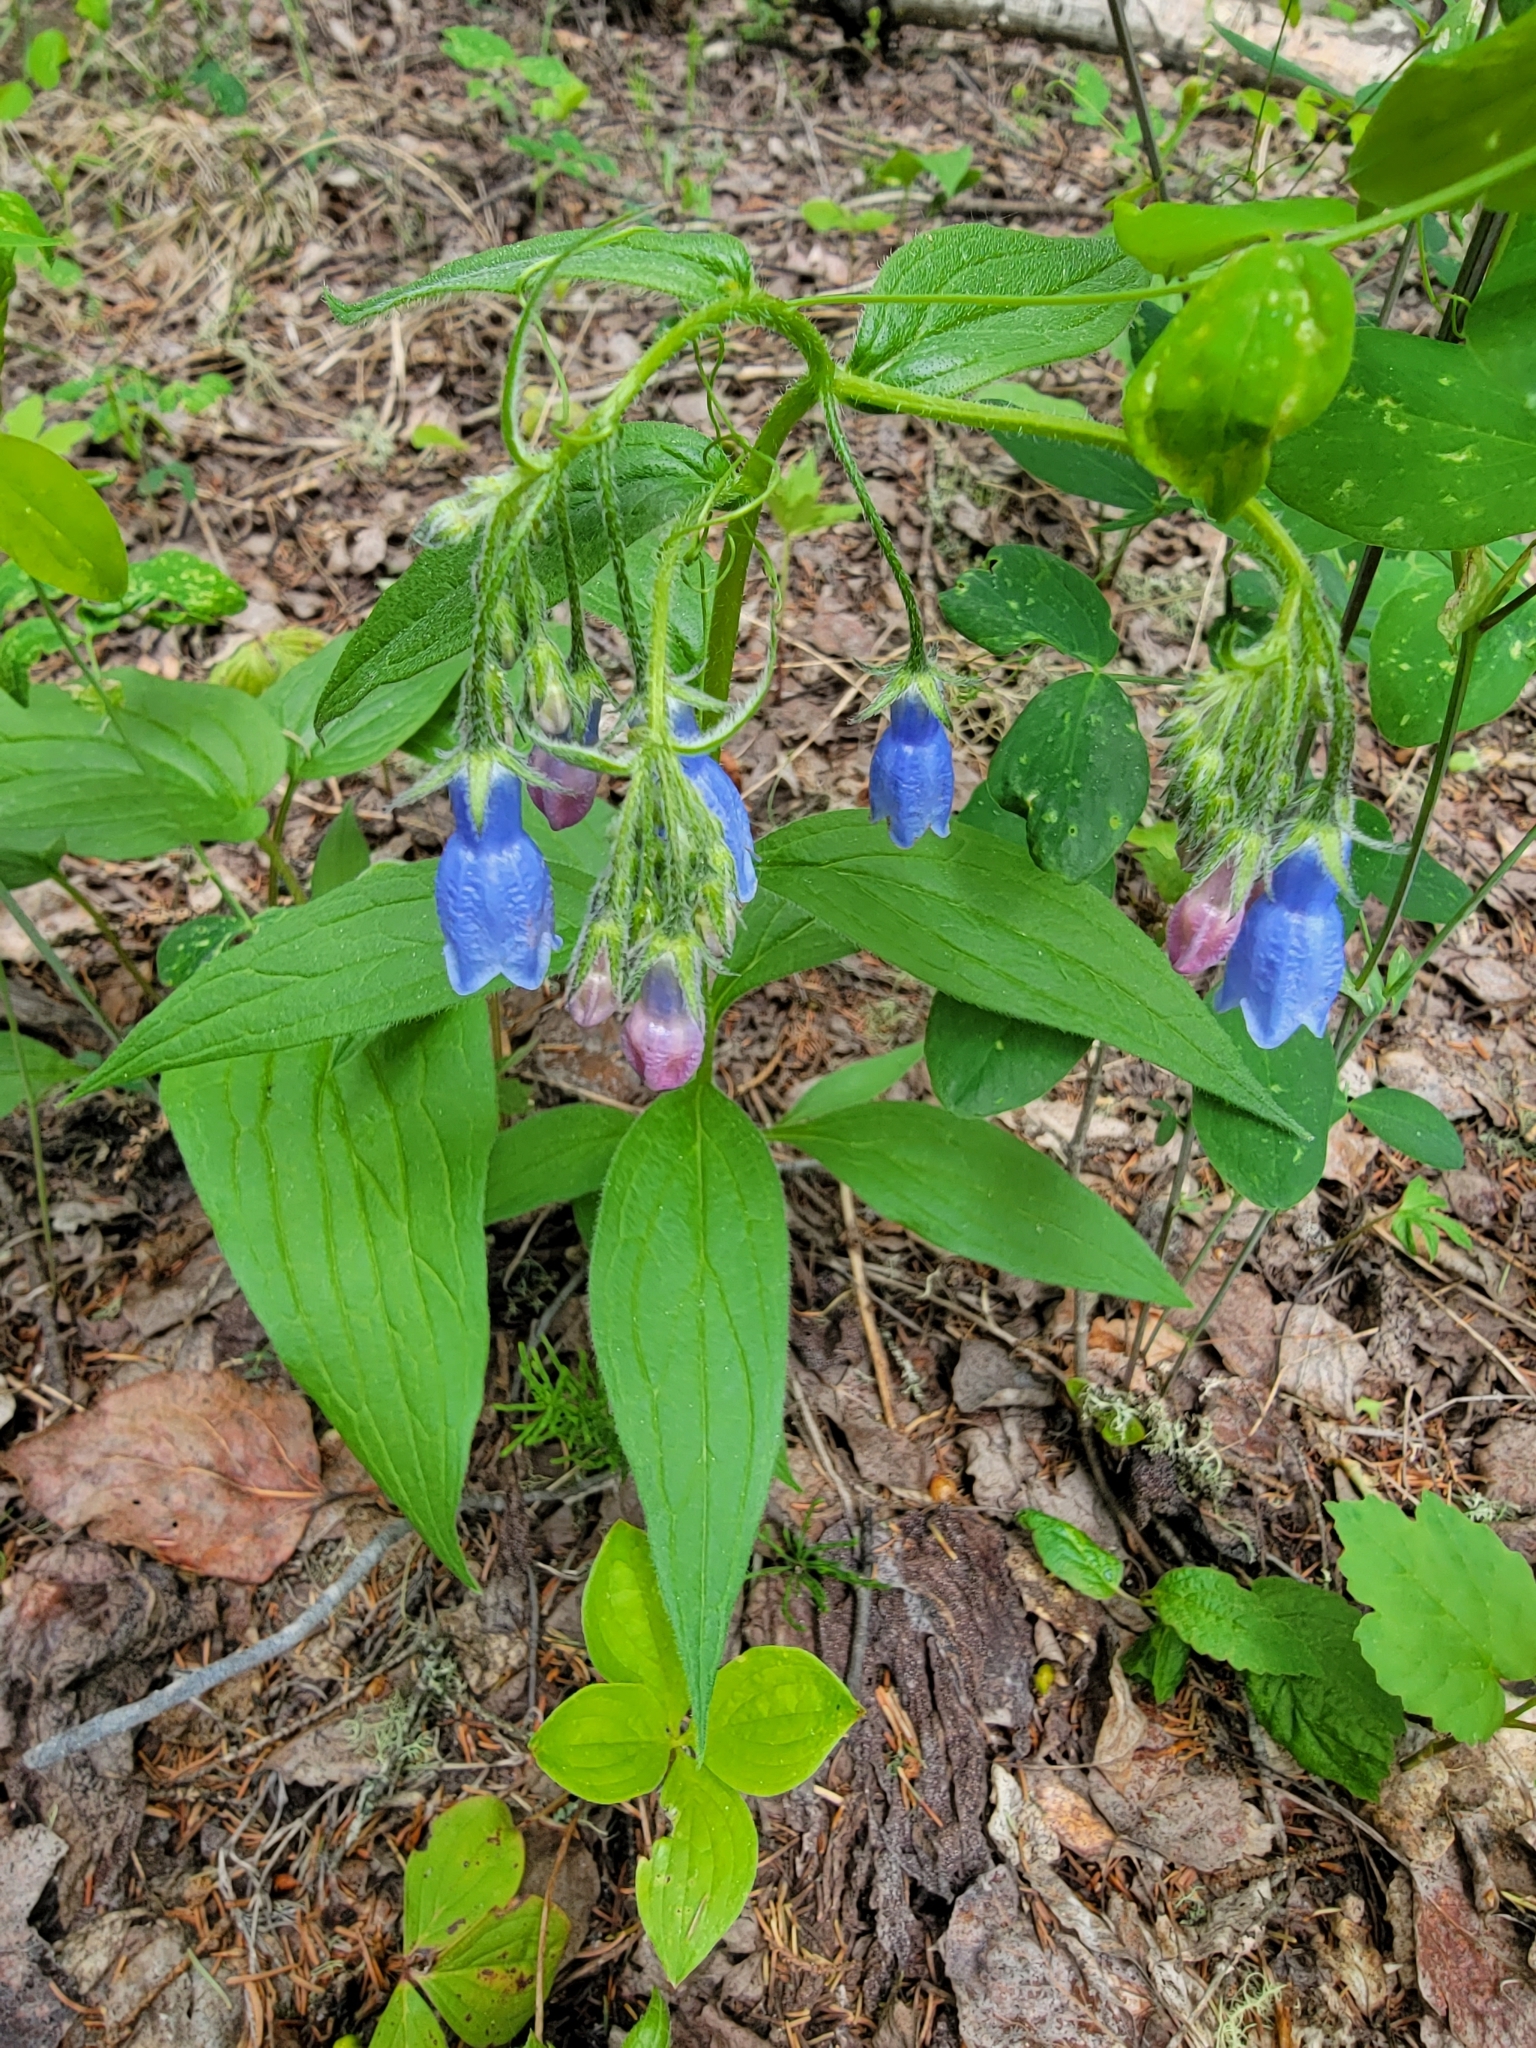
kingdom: Plantae
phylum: Tracheophyta
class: Magnoliopsida
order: Boraginales
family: Boraginaceae
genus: Mertensia
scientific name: Mertensia paniculata
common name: Panicled bluebells
